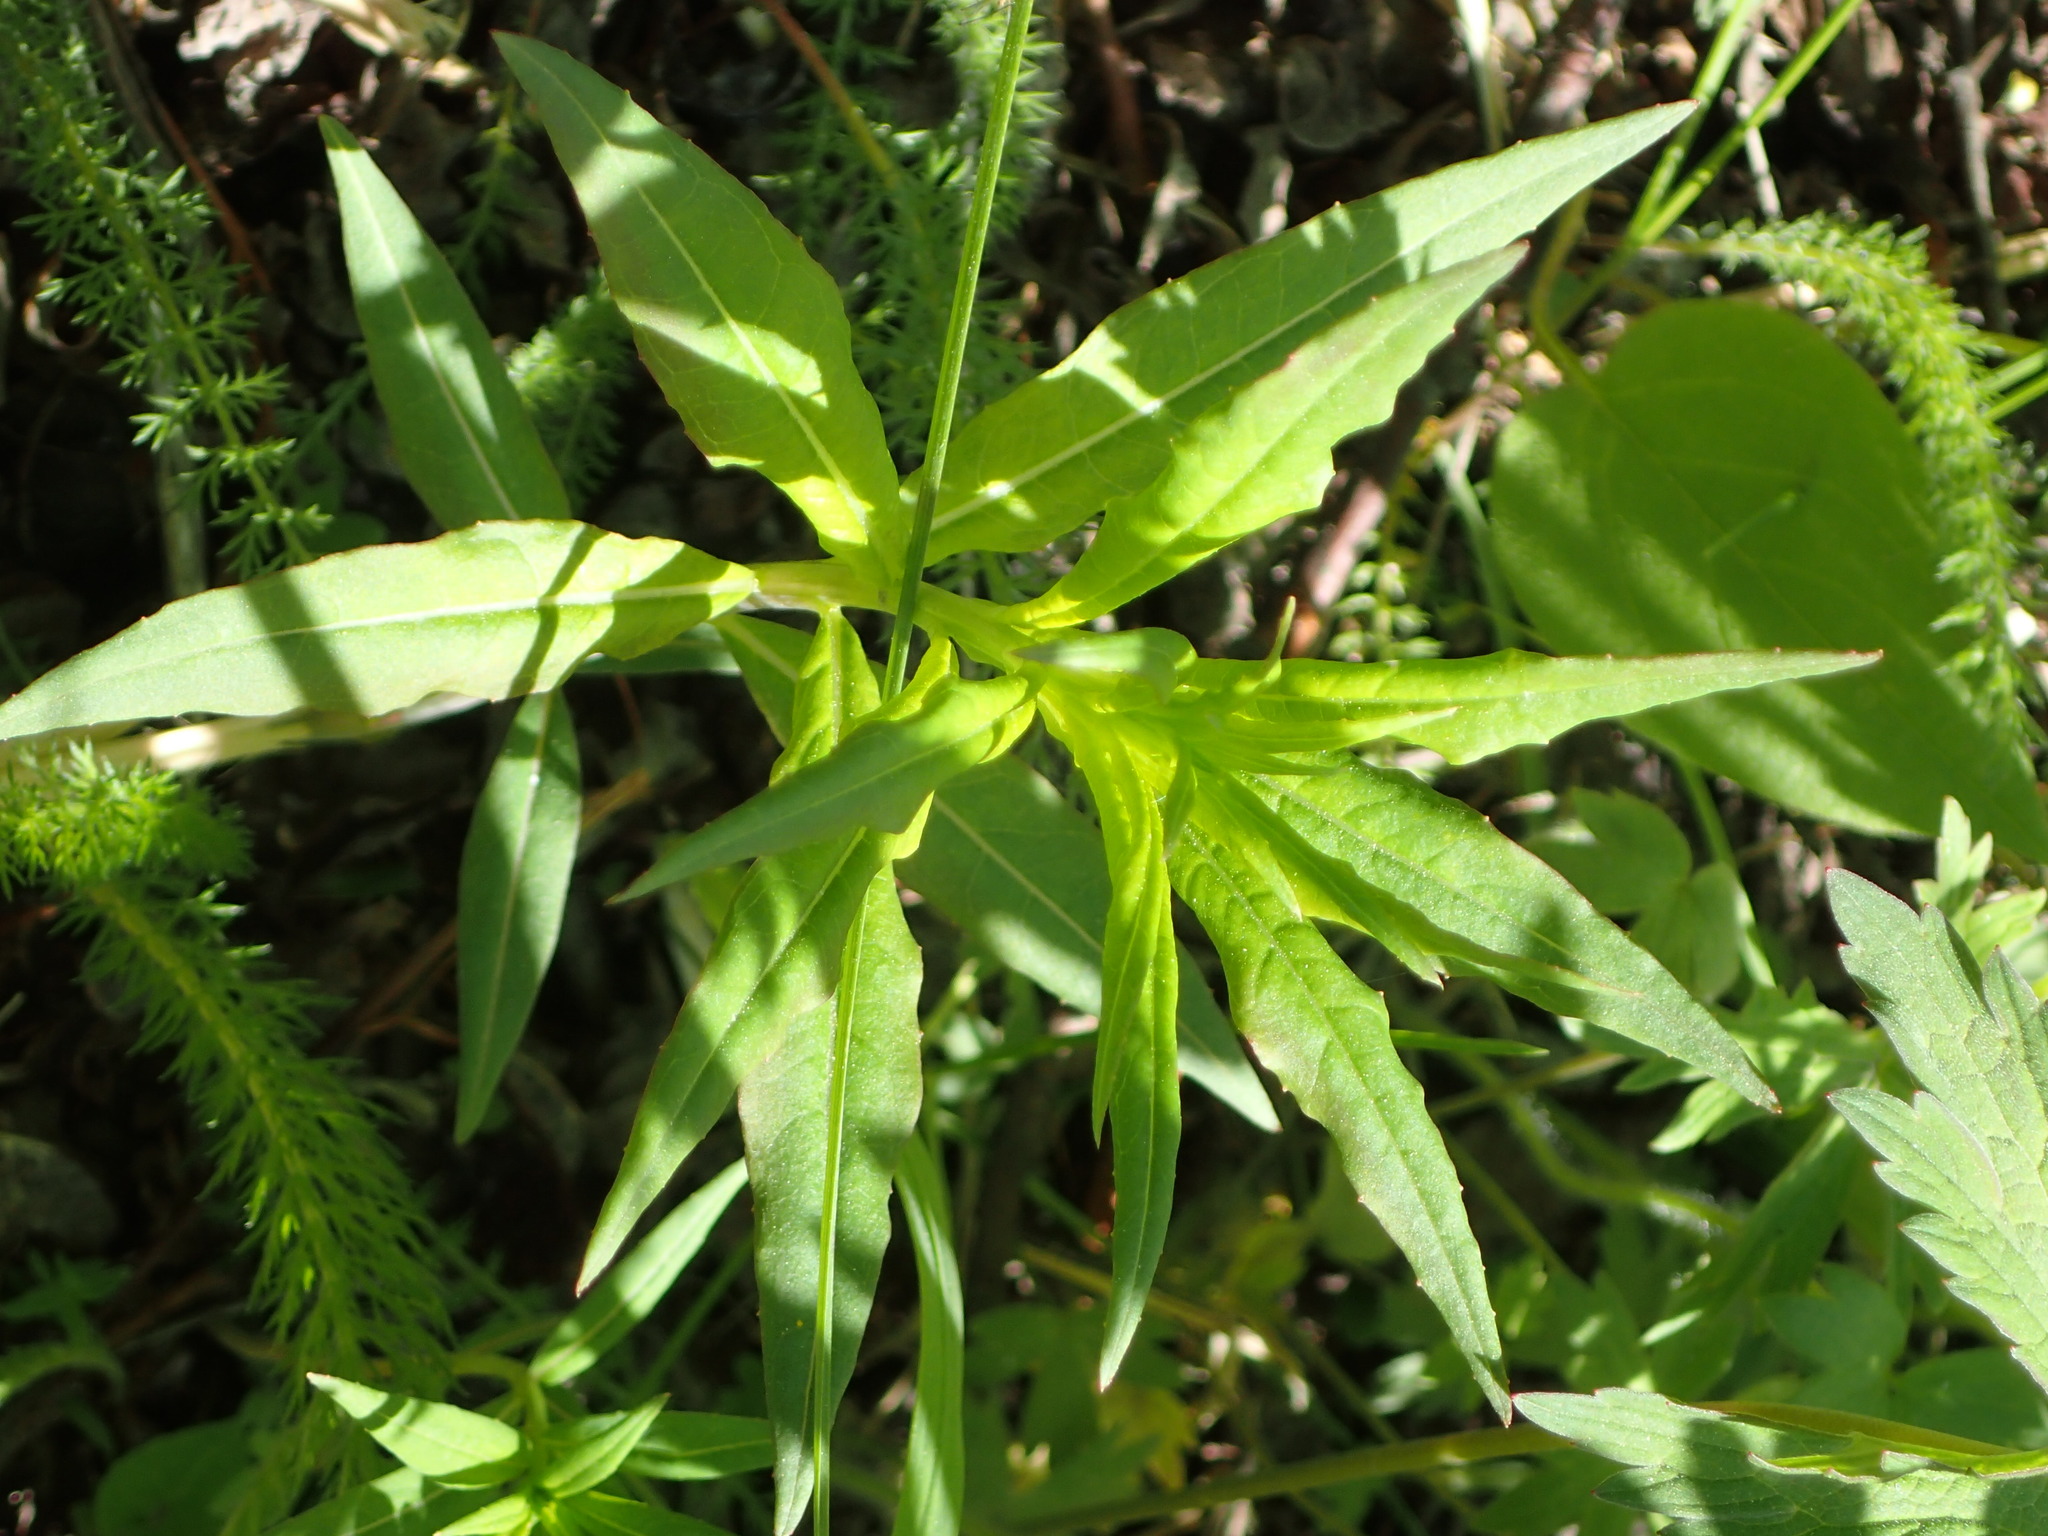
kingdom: Plantae
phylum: Tracheophyta
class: Magnoliopsida
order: Myrtales
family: Onagraceae
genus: Chamaenerion
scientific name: Chamaenerion angustifolium
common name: Fireweed
